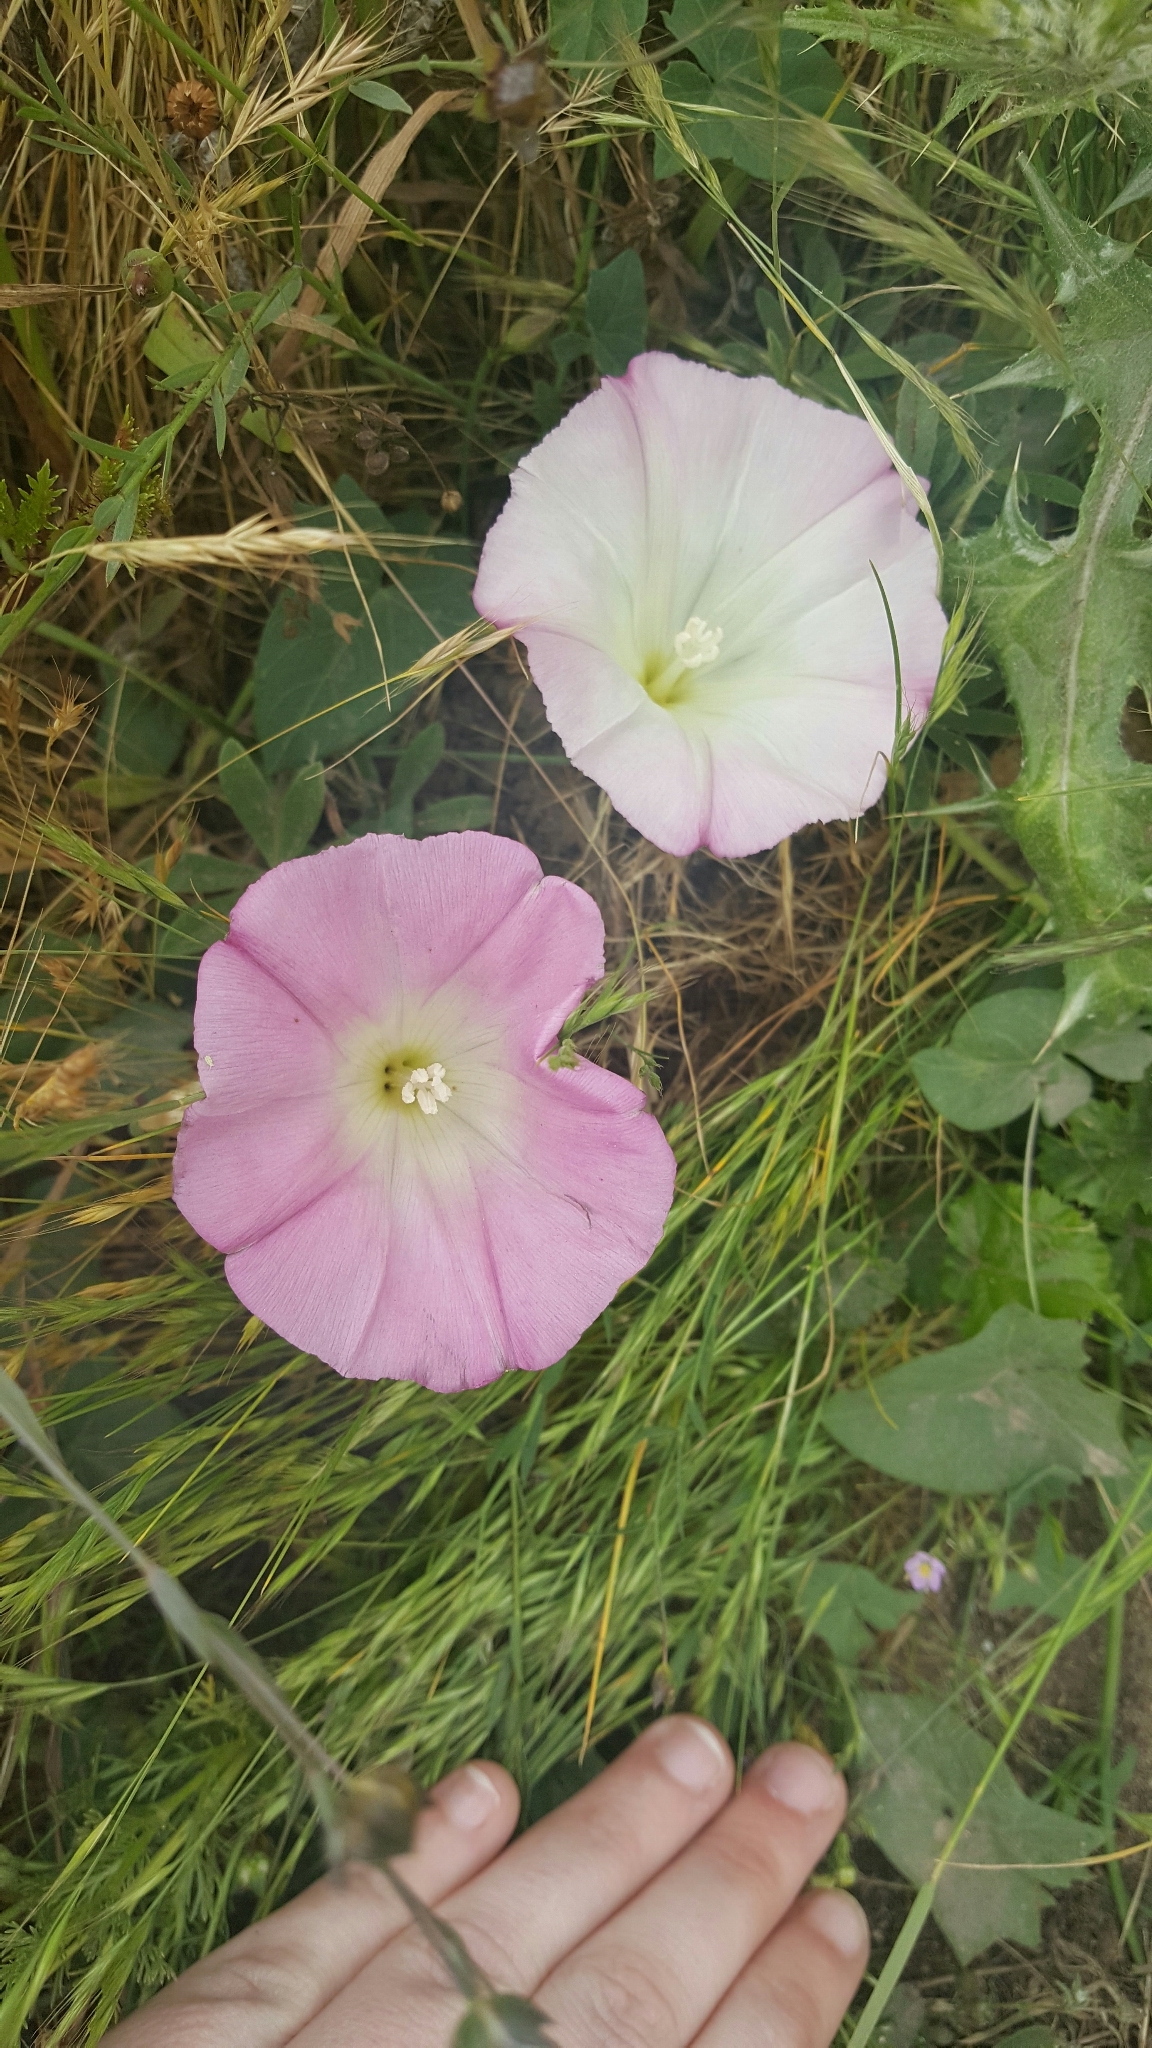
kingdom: Plantae
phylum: Tracheophyta
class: Magnoliopsida
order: Solanales
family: Convolvulaceae
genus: Calystegia
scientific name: Calystegia purpurata
